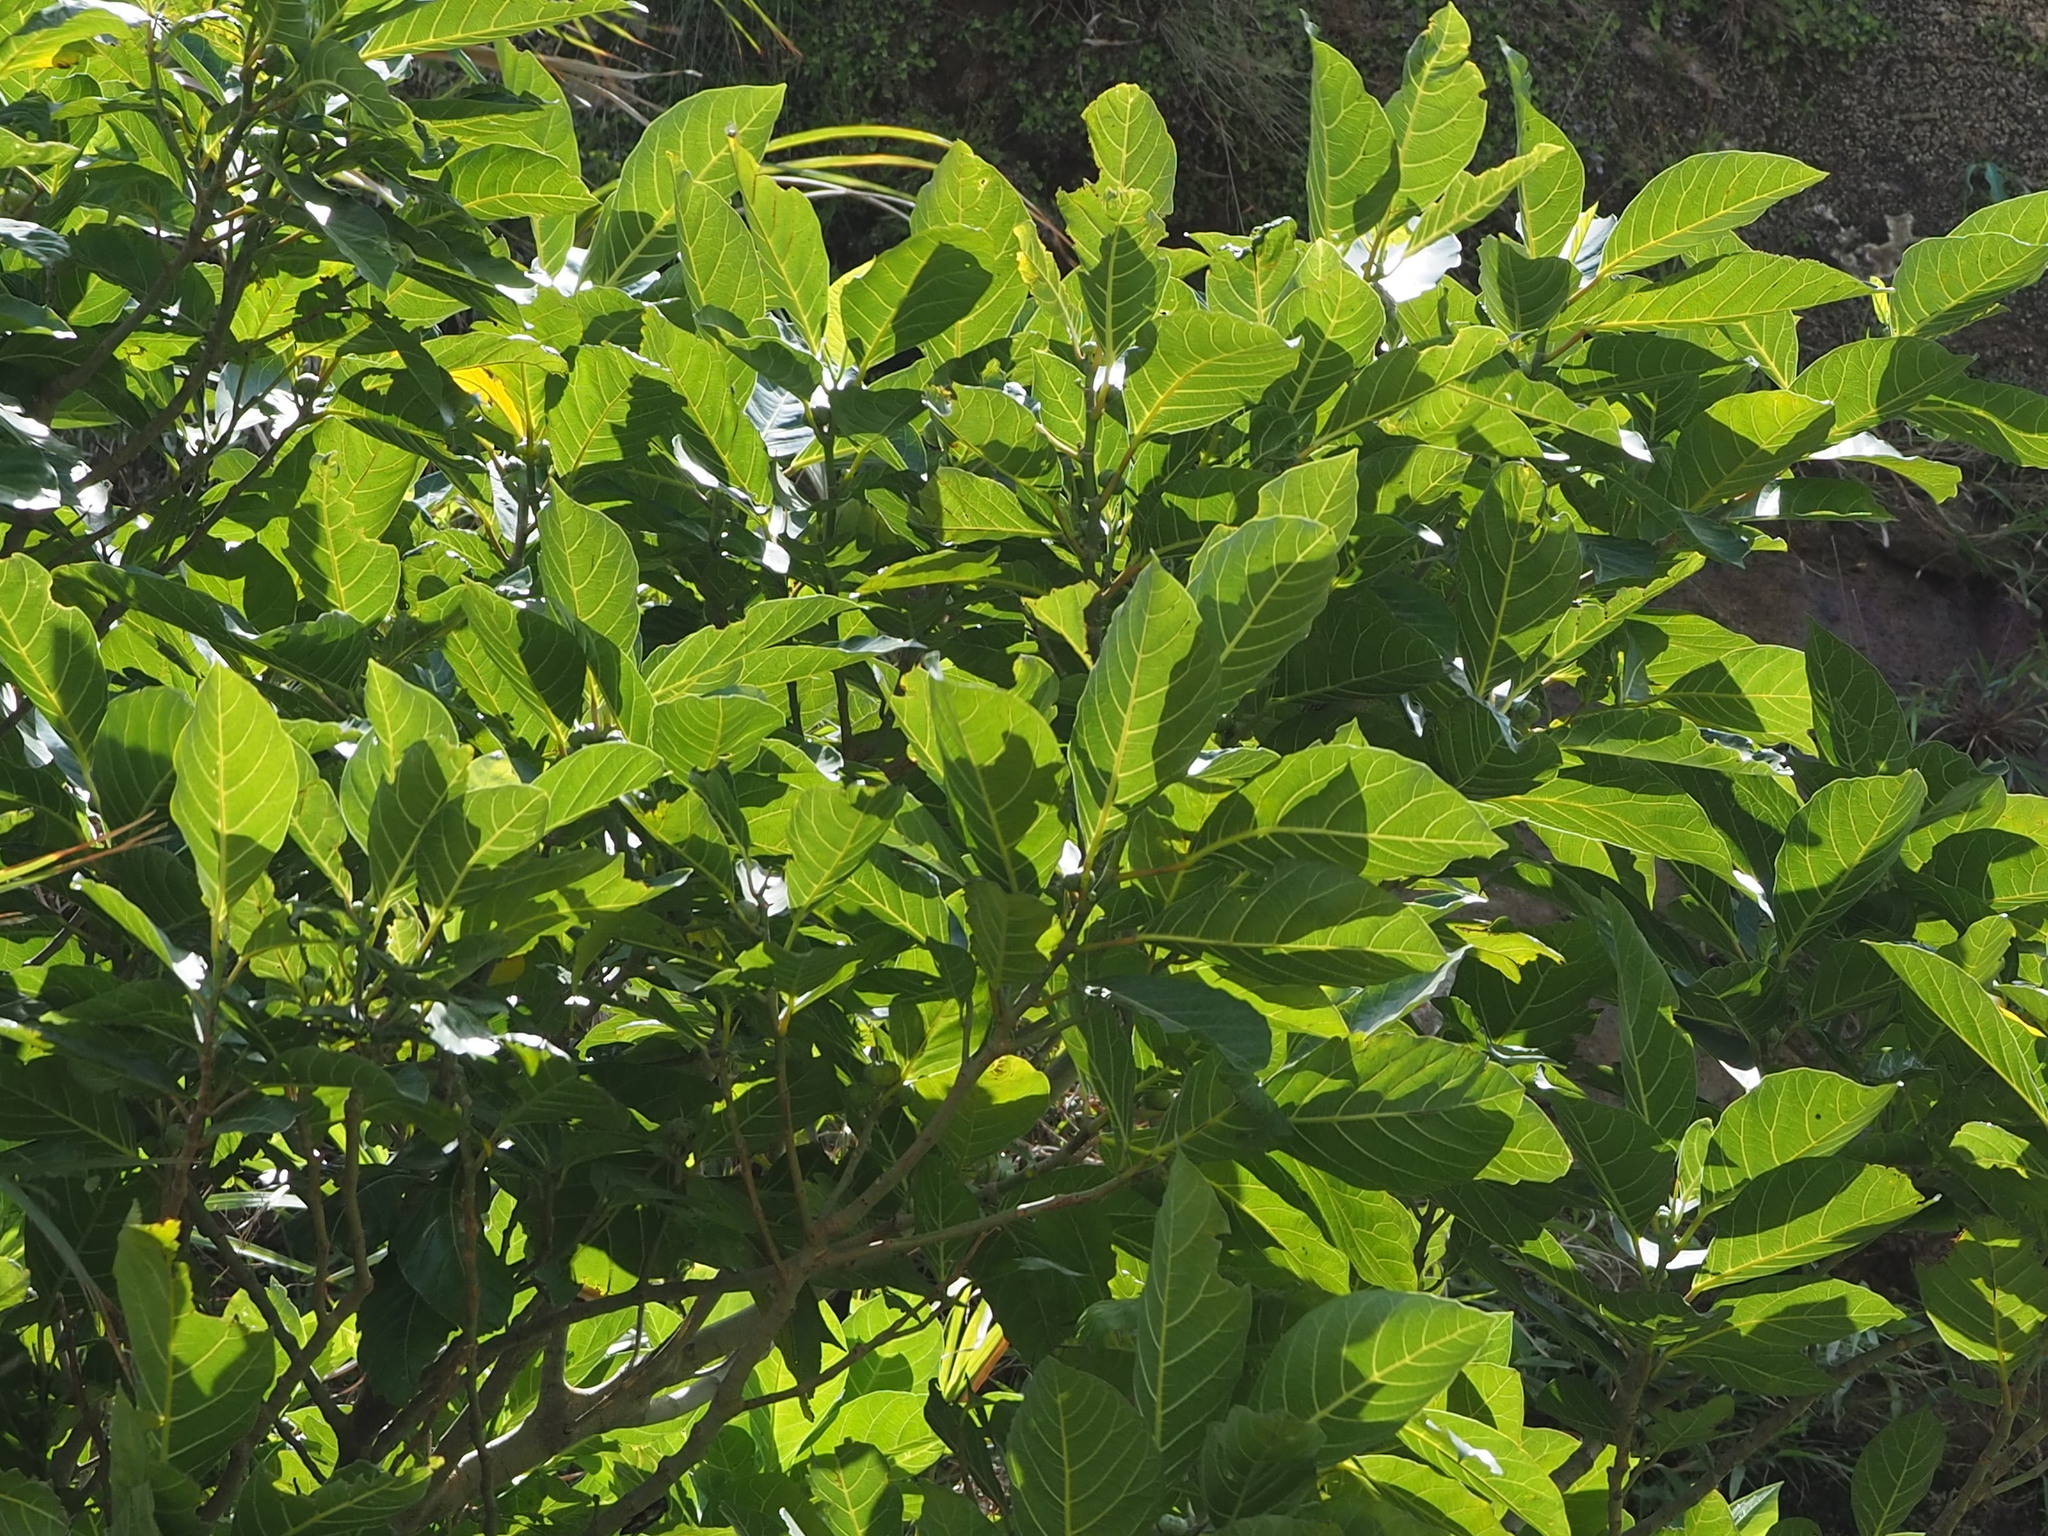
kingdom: Plantae
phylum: Tracheophyta
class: Magnoliopsida
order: Rosales
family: Moraceae
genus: Ficus
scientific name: Ficus septica
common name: Septic fig
